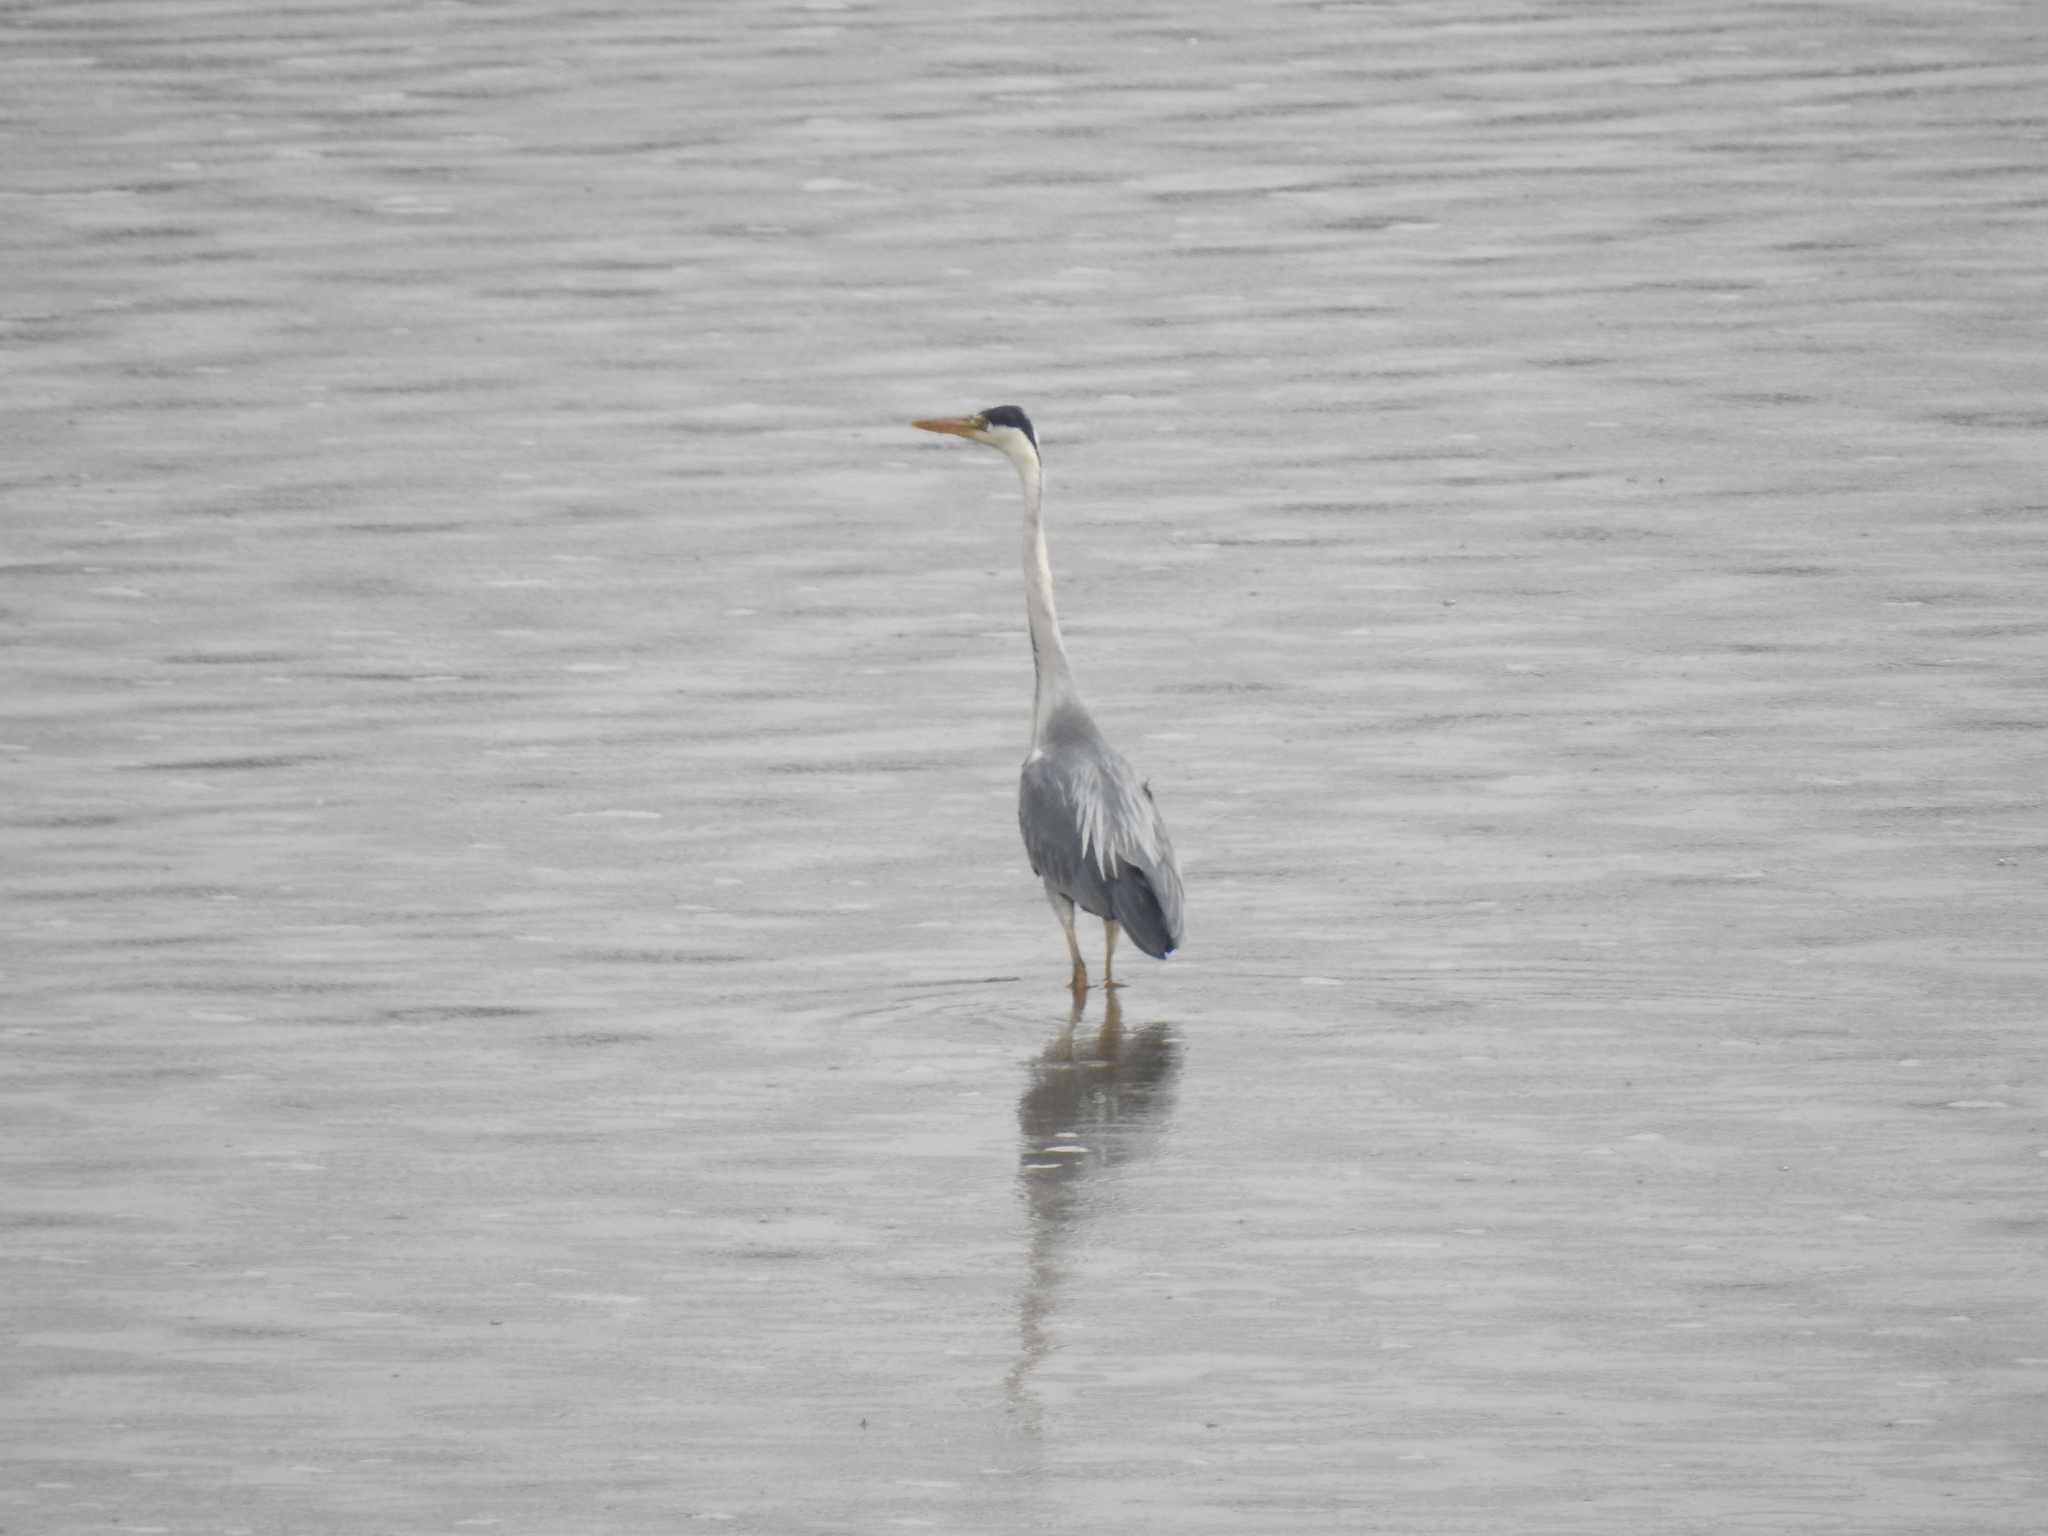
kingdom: Animalia
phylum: Chordata
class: Aves
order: Pelecaniformes
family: Ardeidae
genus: Ardea
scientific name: Ardea cinerea
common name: Grey heron
